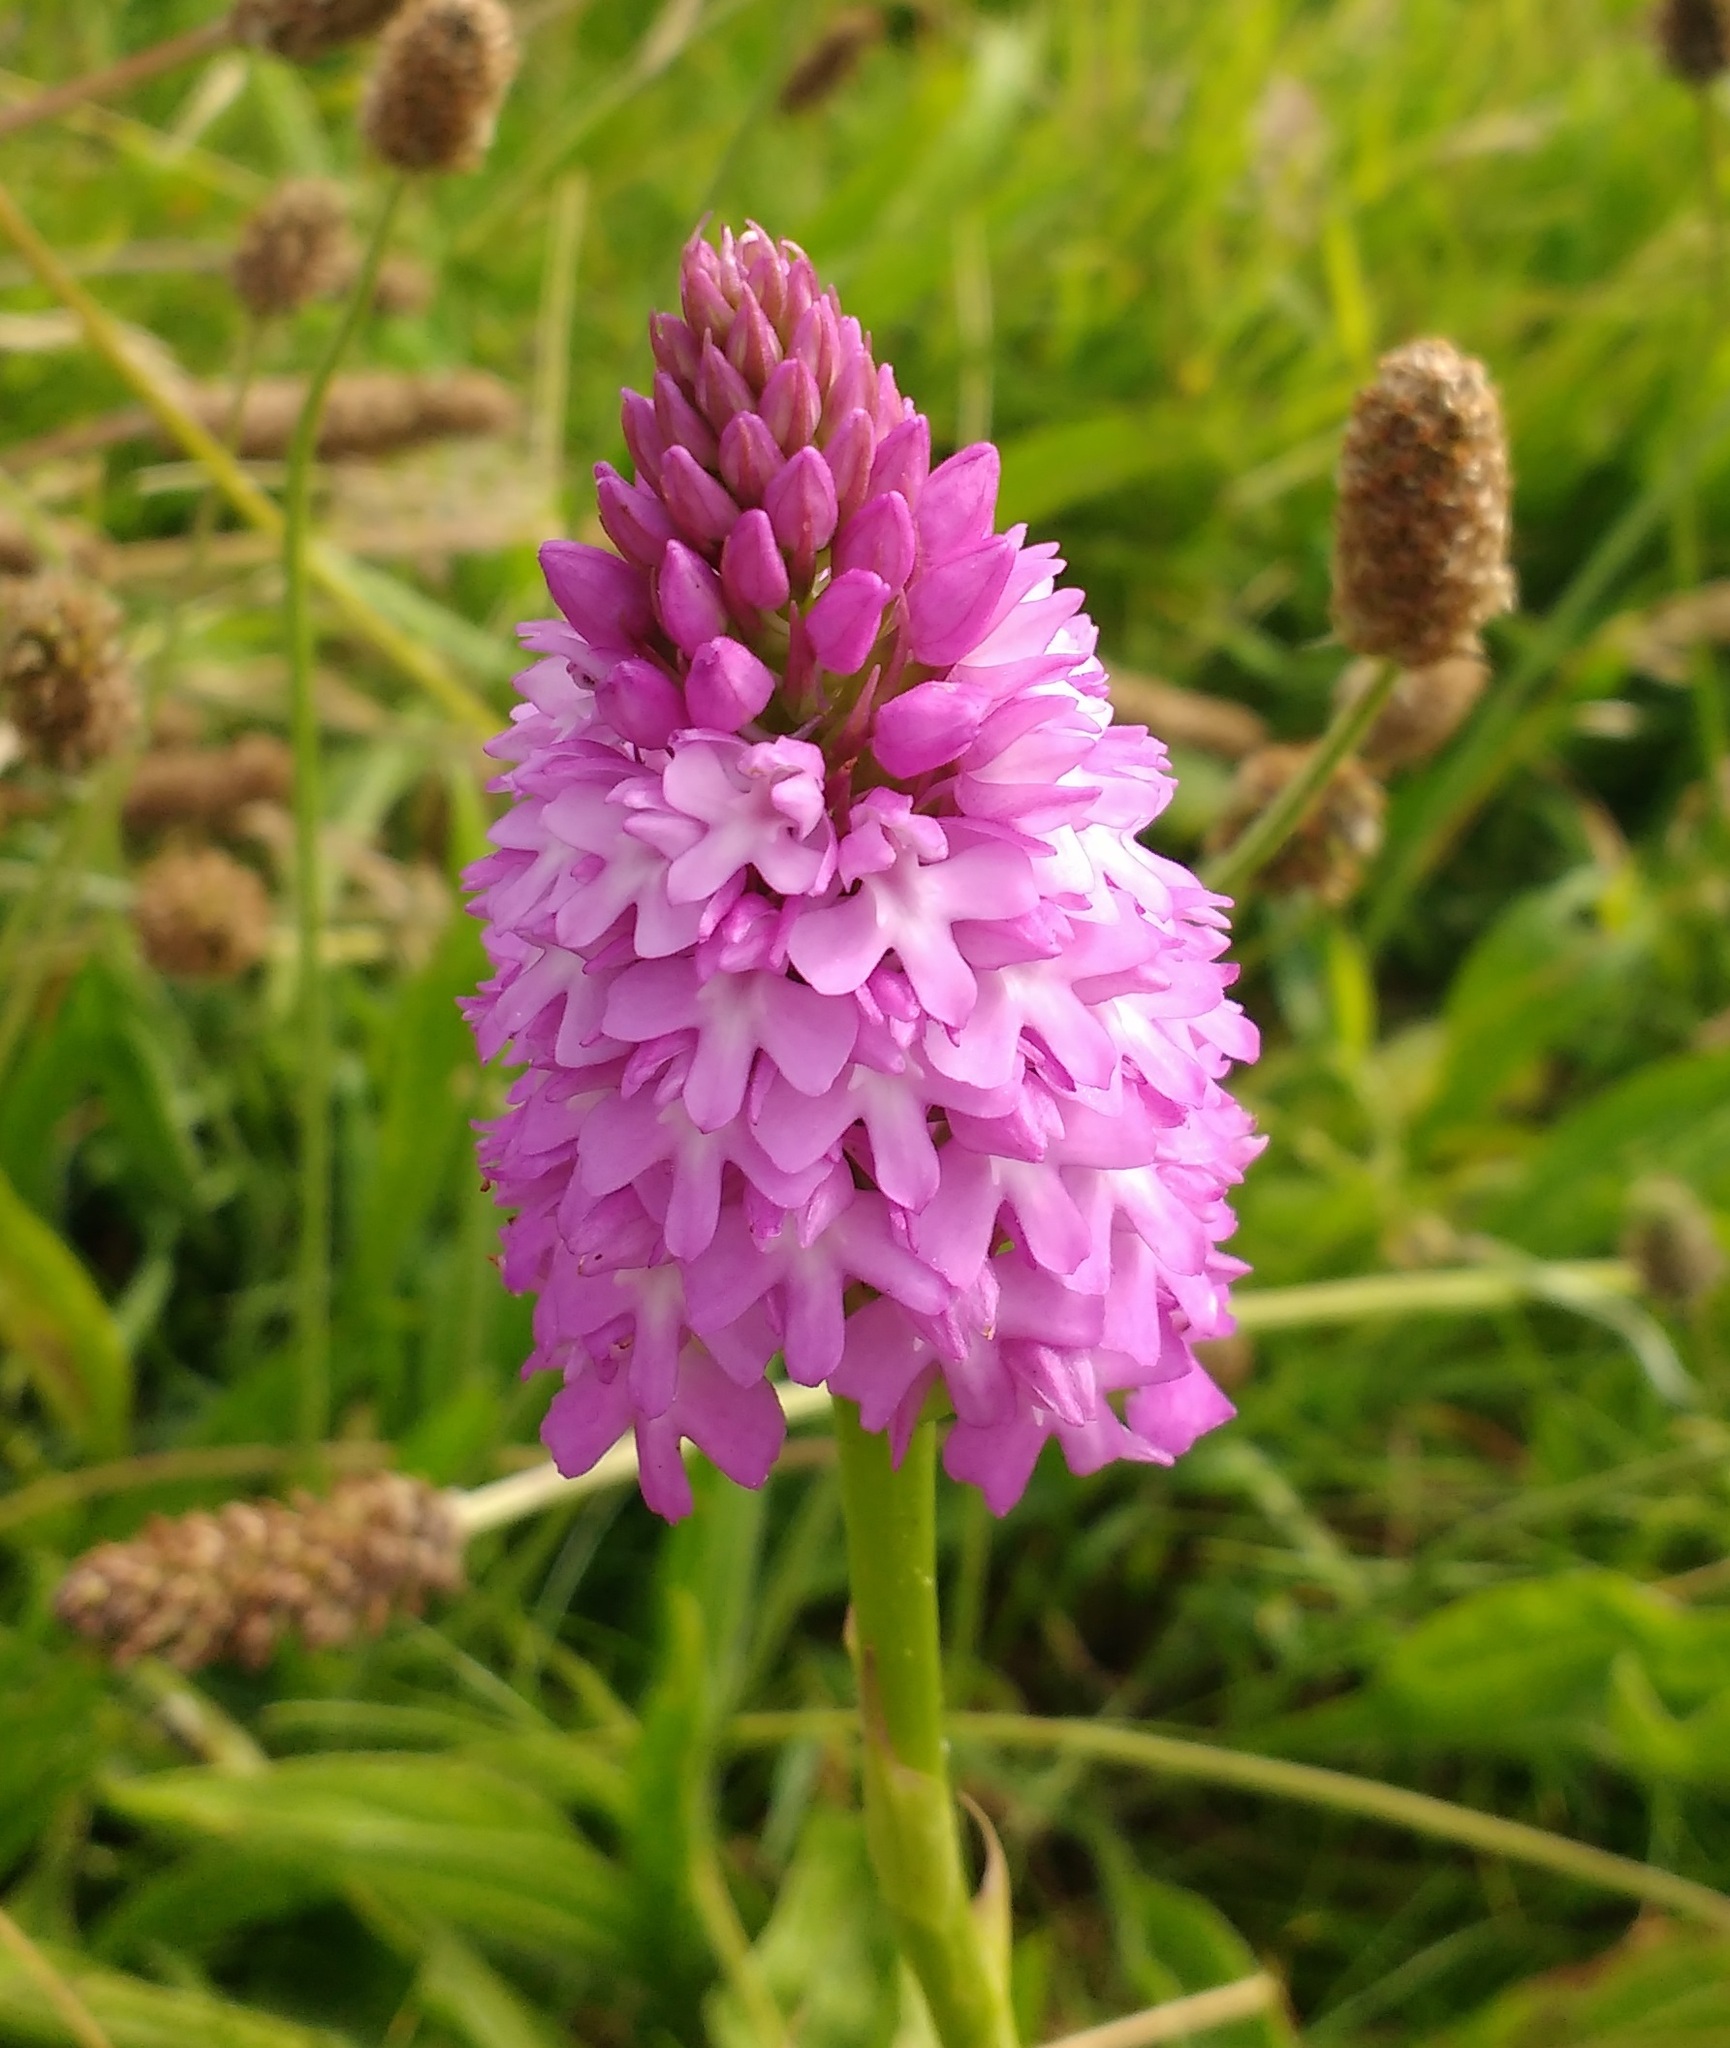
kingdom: Plantae
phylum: Tracheophyta
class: Liliopsida
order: Asparagales
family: Orchidaceae
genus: Anacamptis
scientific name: Anacamptis pyramidalis
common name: Pyramidal orchid
